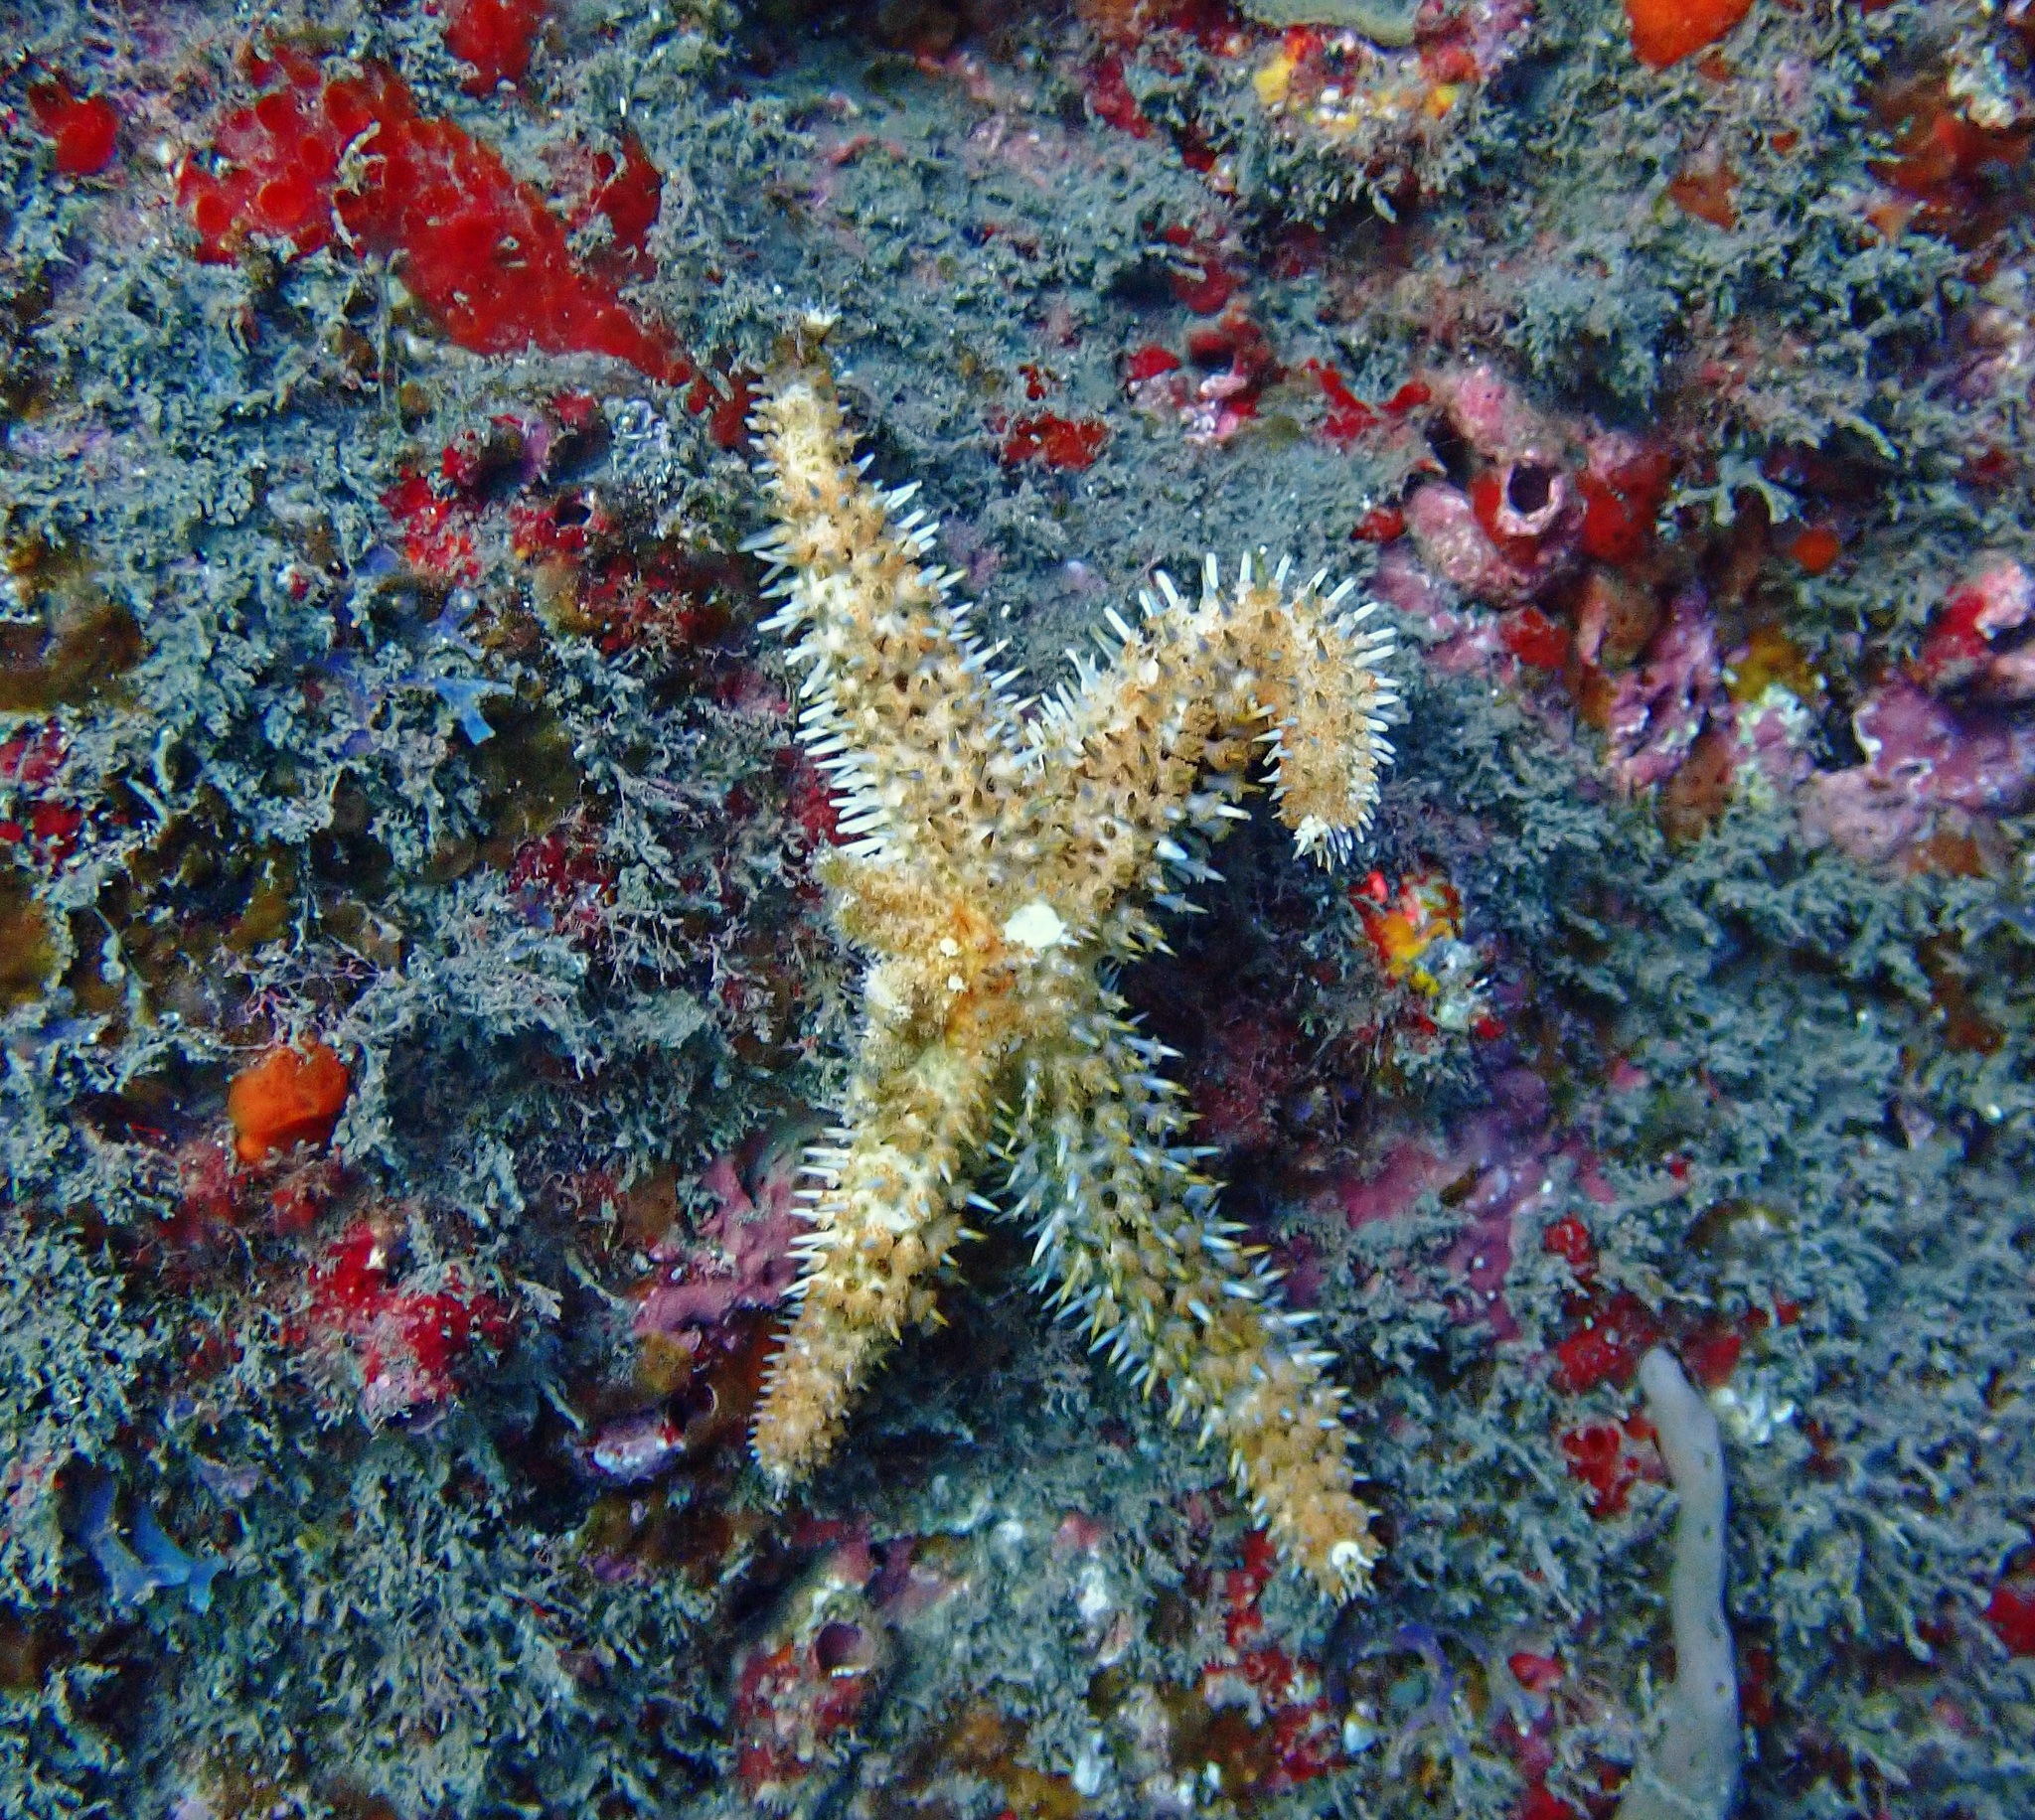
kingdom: Animalia
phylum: Echinodermata
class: Asteroidea
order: Forcipulatida
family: Asteriidae
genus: Coscinasterias
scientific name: Coscinasterias tenuispina
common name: Blue spiny starfish
